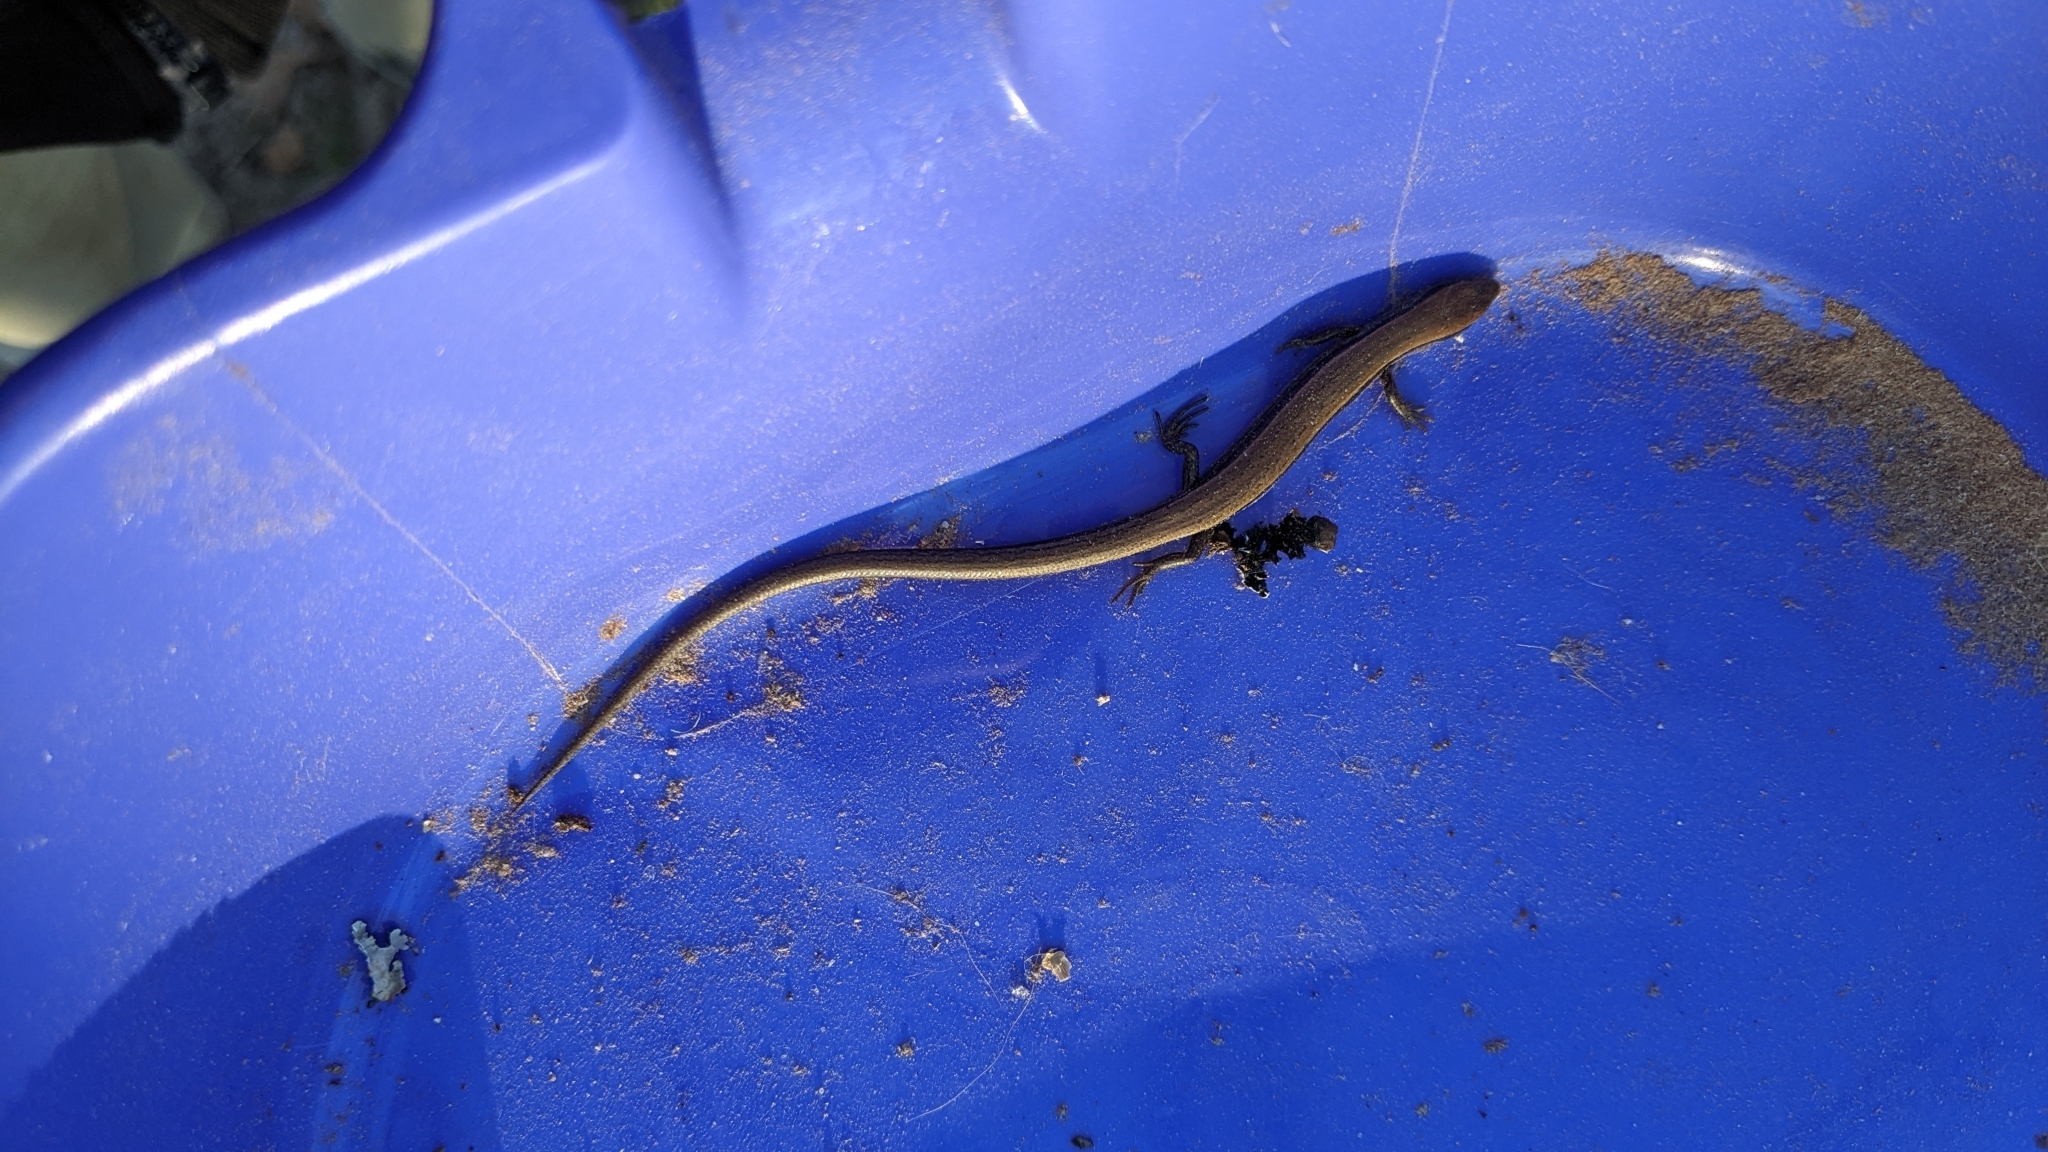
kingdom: Animalia
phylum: Chordata
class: Squamata
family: Scincidae
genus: Scincella
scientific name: Scincella lateralis
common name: Ground skink
